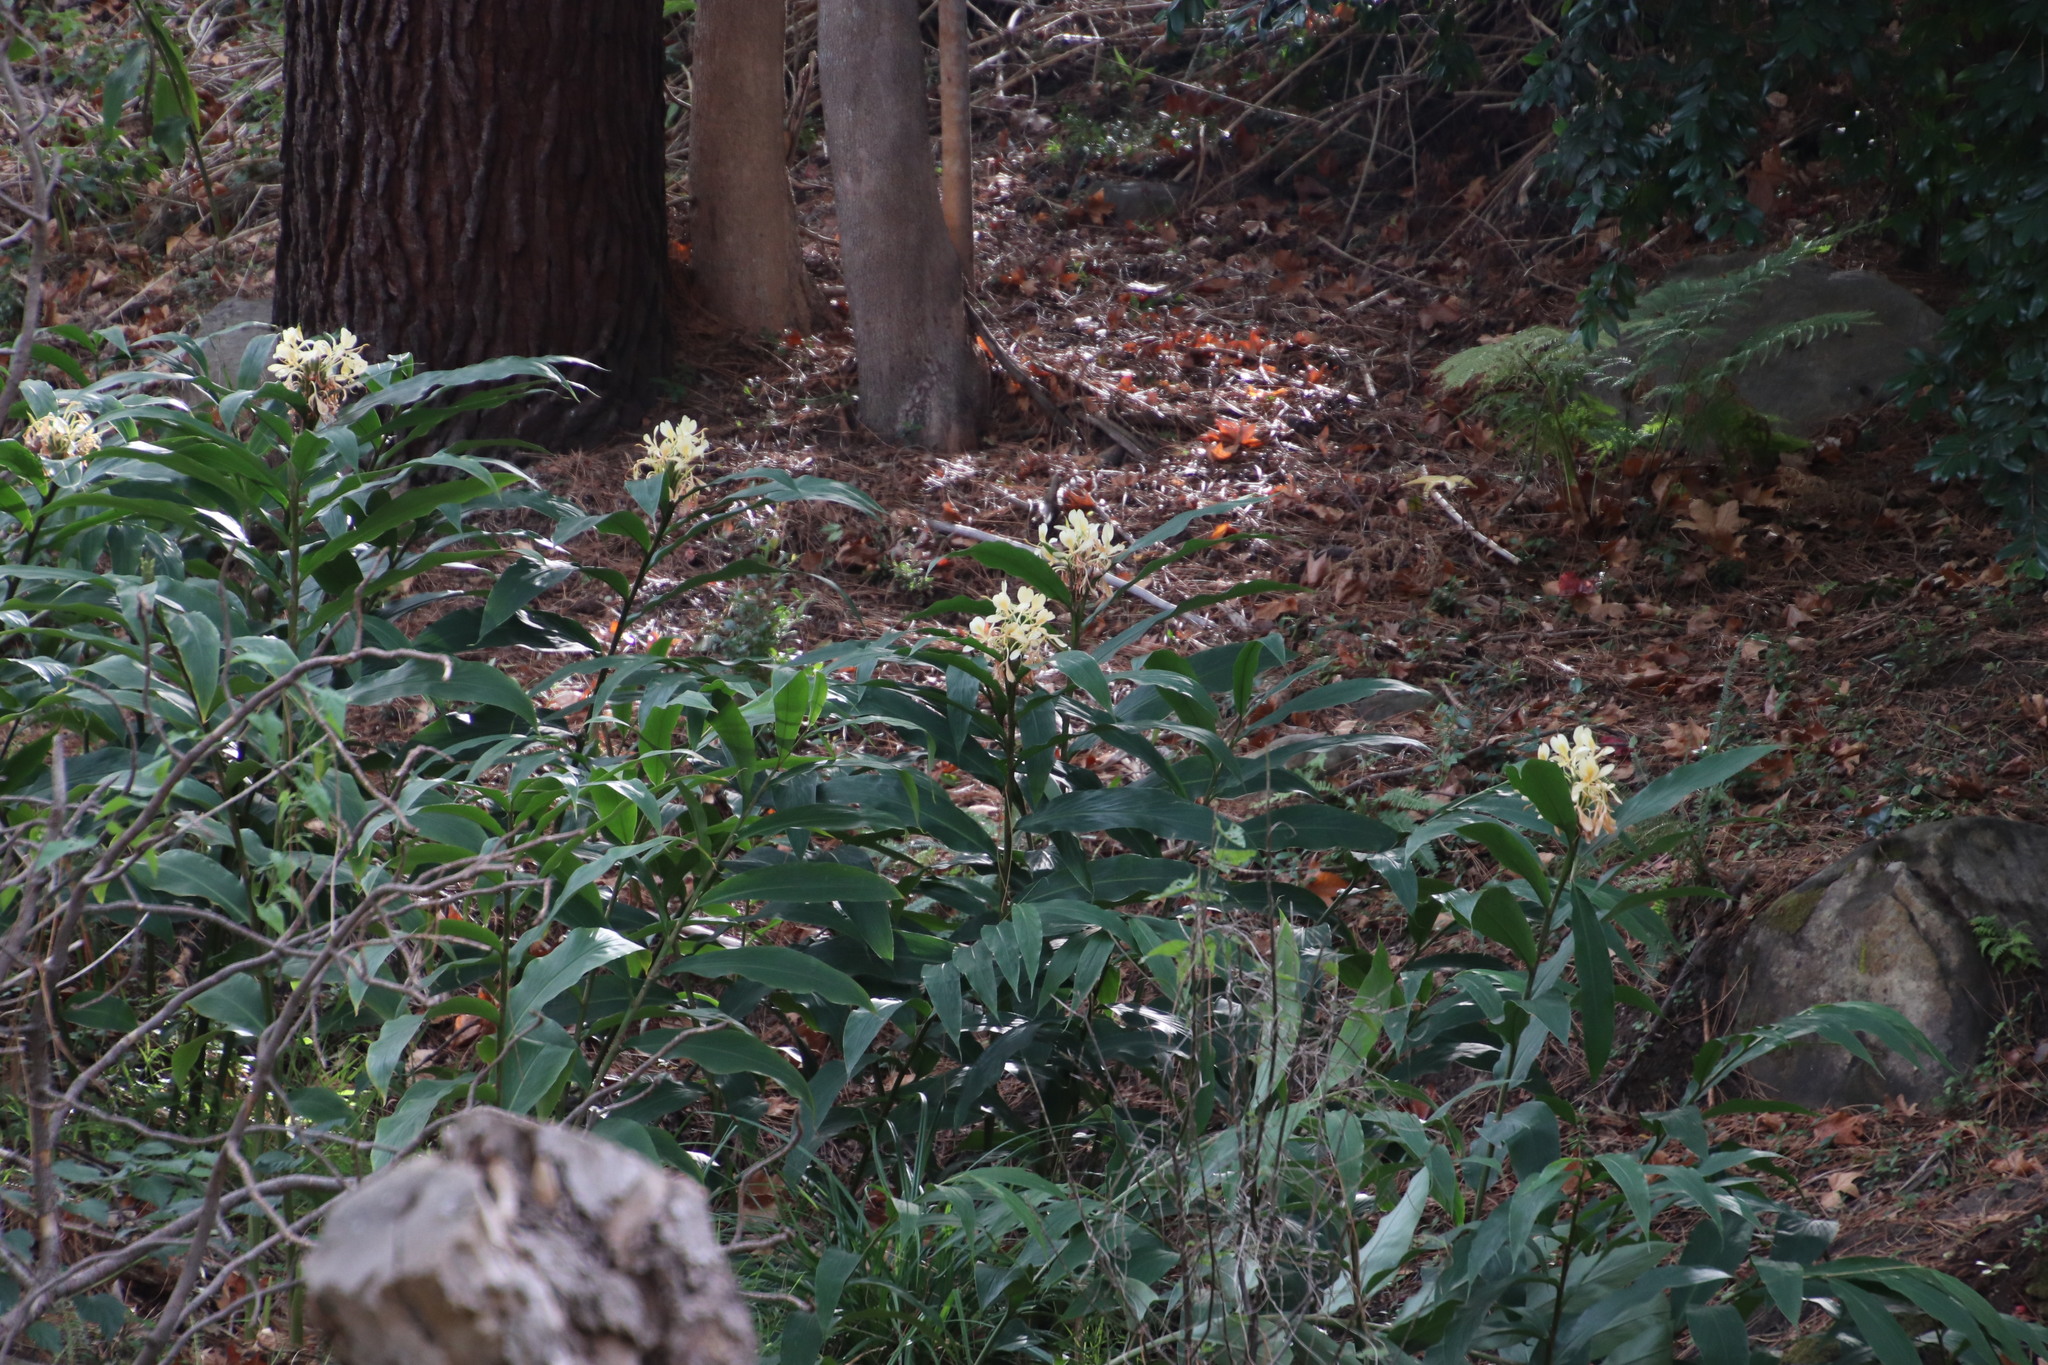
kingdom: Plantae
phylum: Tracheophyta
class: Liliopsida
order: Zingiberales
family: Zingiberaceae
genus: Hedychium
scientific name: Hedychium flavescens
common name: Yellow ginger
